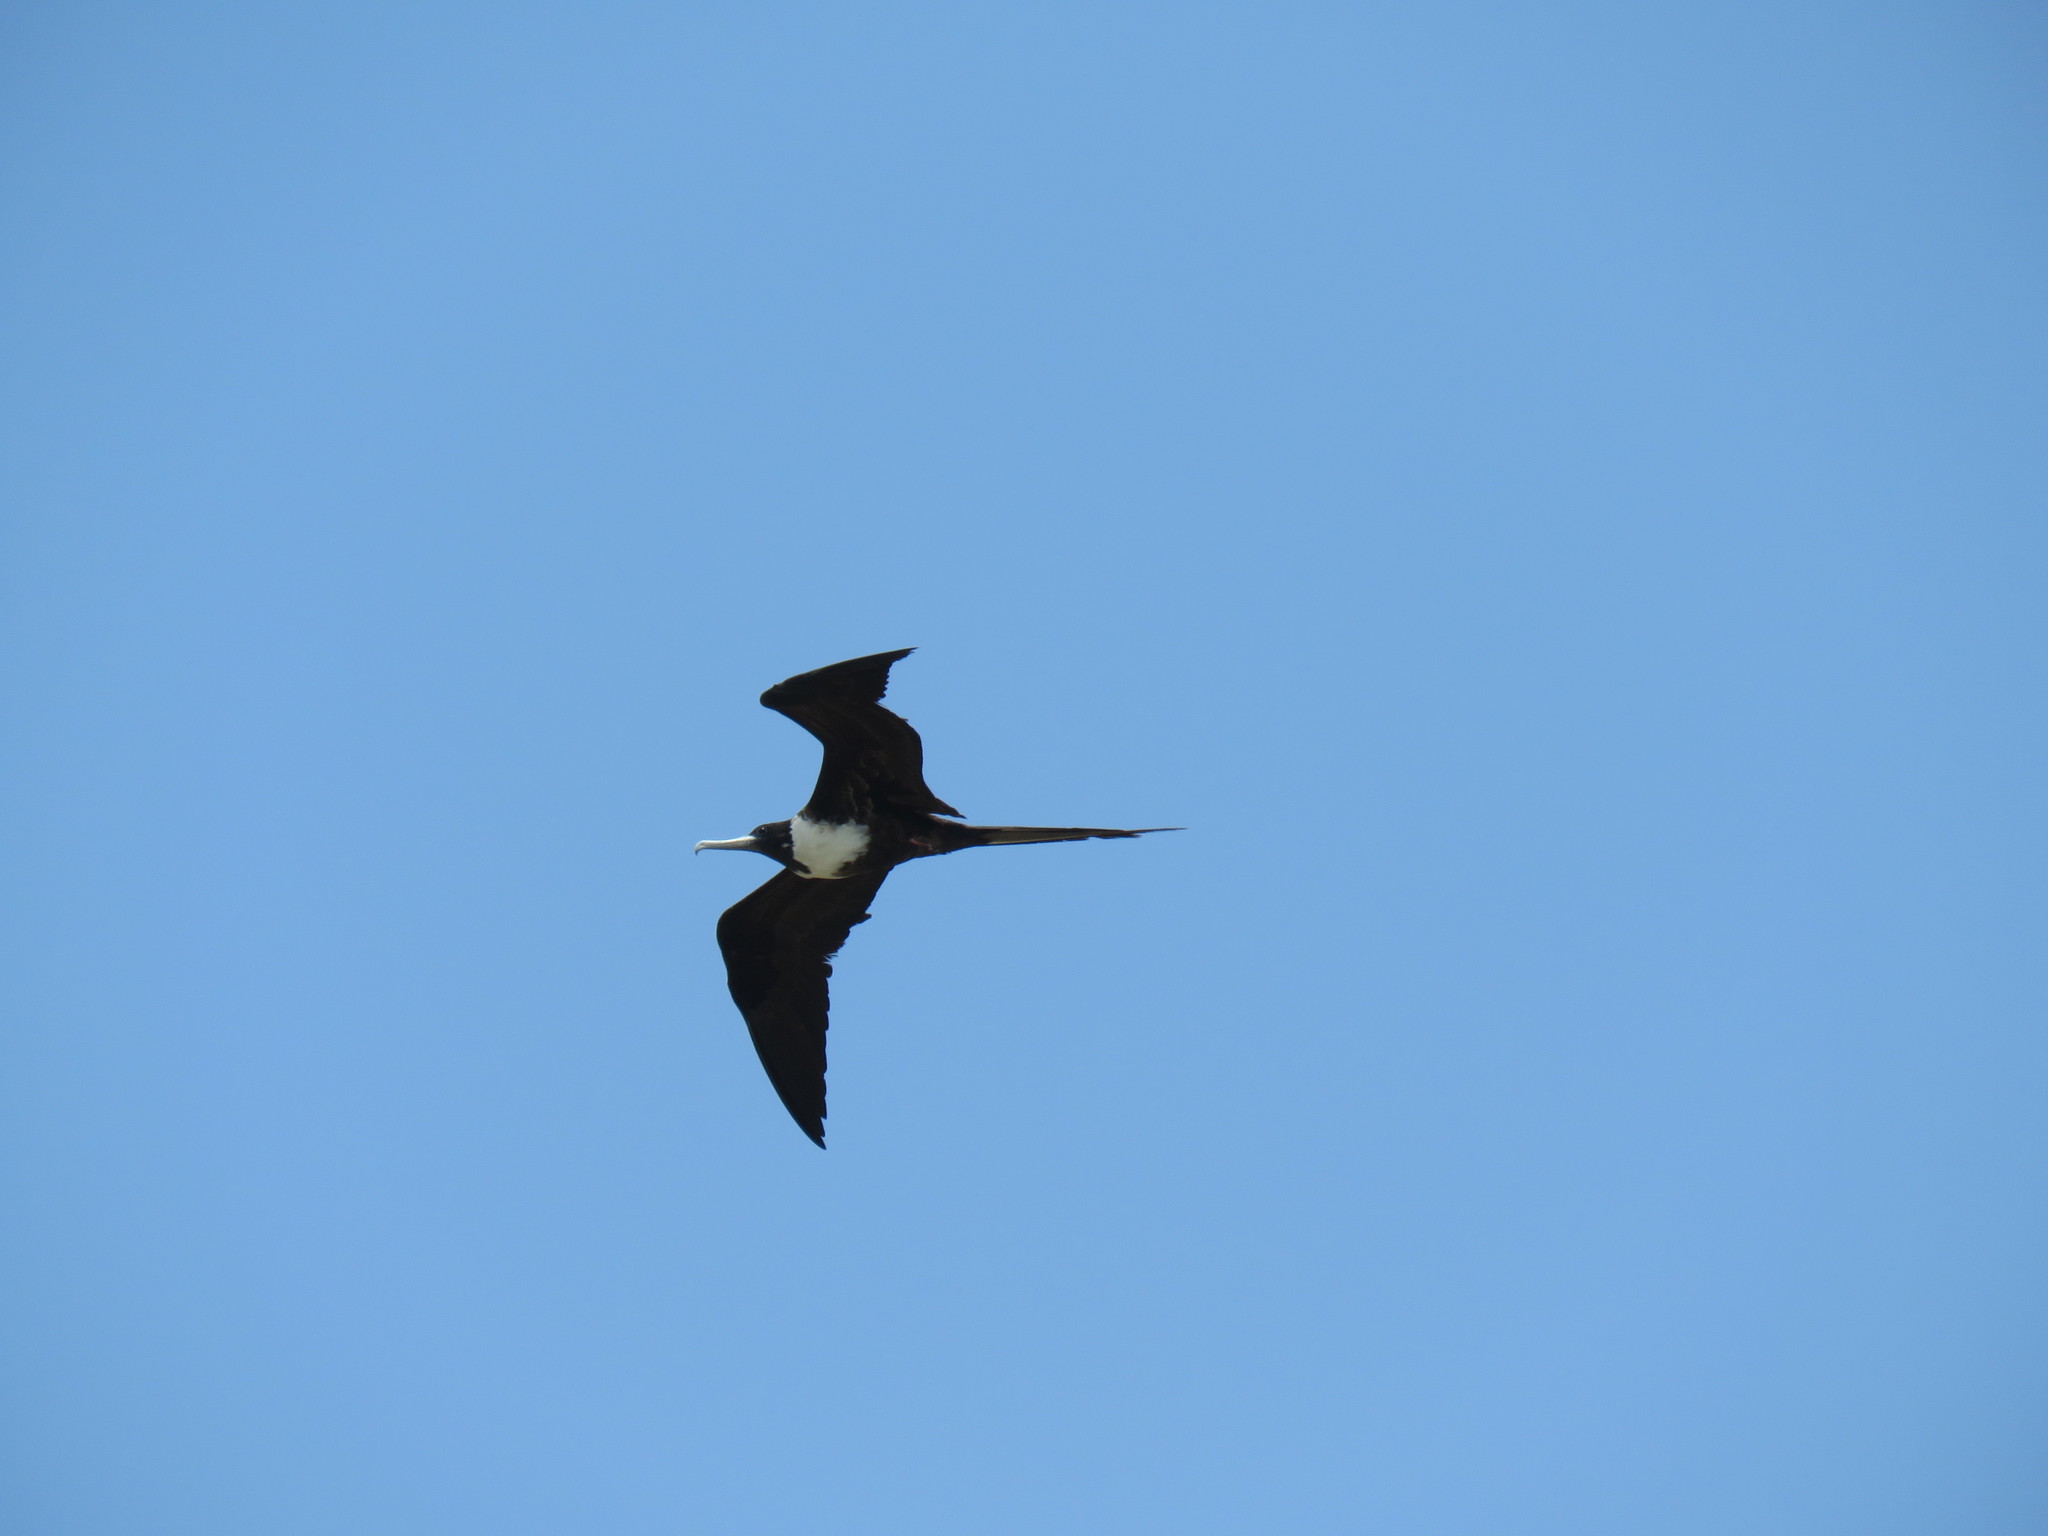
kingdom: Animalia
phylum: Chordata
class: Aves
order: Suliformes
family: Fregatidae
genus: Fregata
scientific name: Fregata magnificens
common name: Magnificent frigatebird
